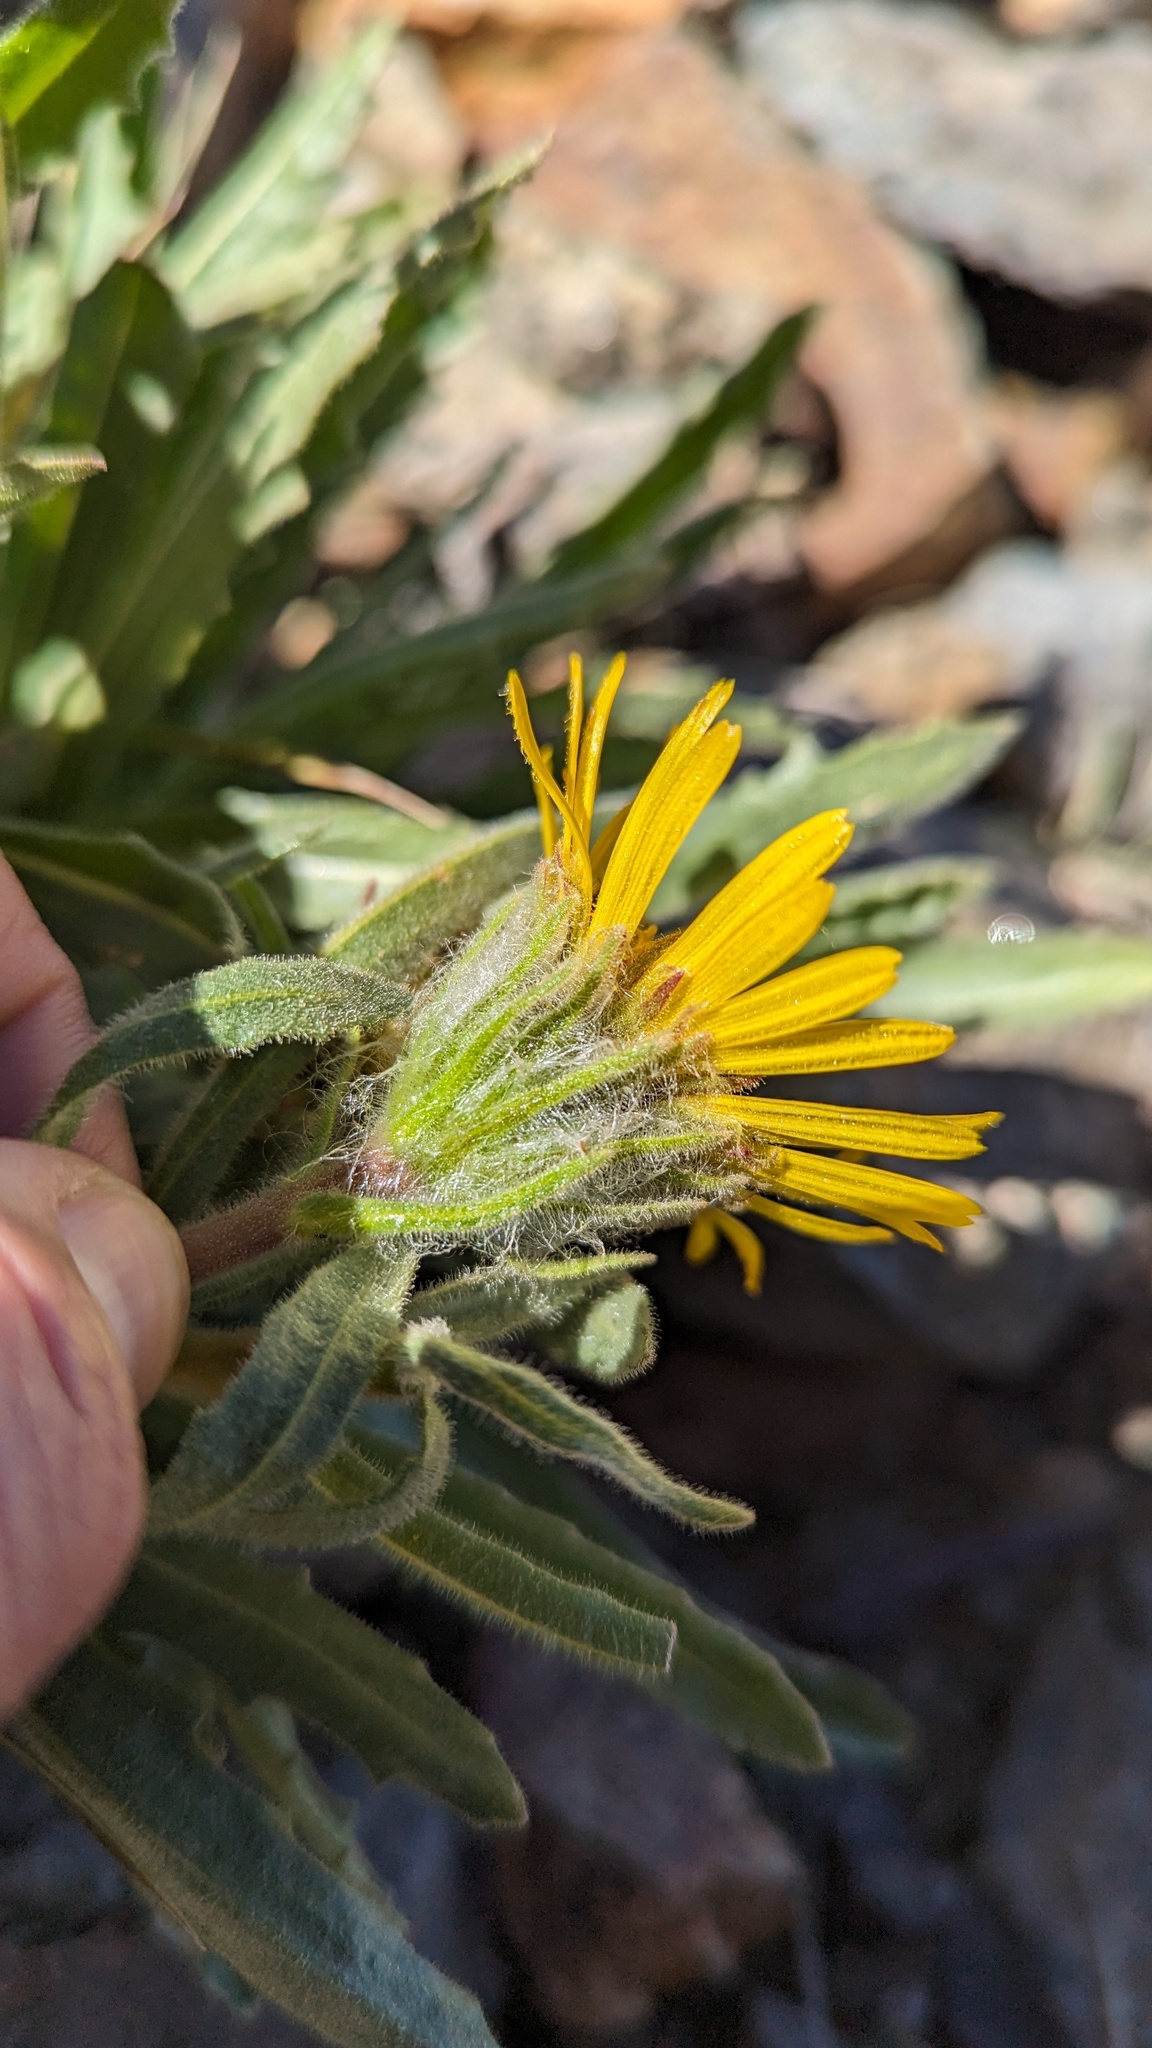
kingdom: Plantae
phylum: Tracheophyta
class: Magnoliopsida
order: Asterales
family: Asteraceae
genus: Hulsea
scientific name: Hulsea algida
